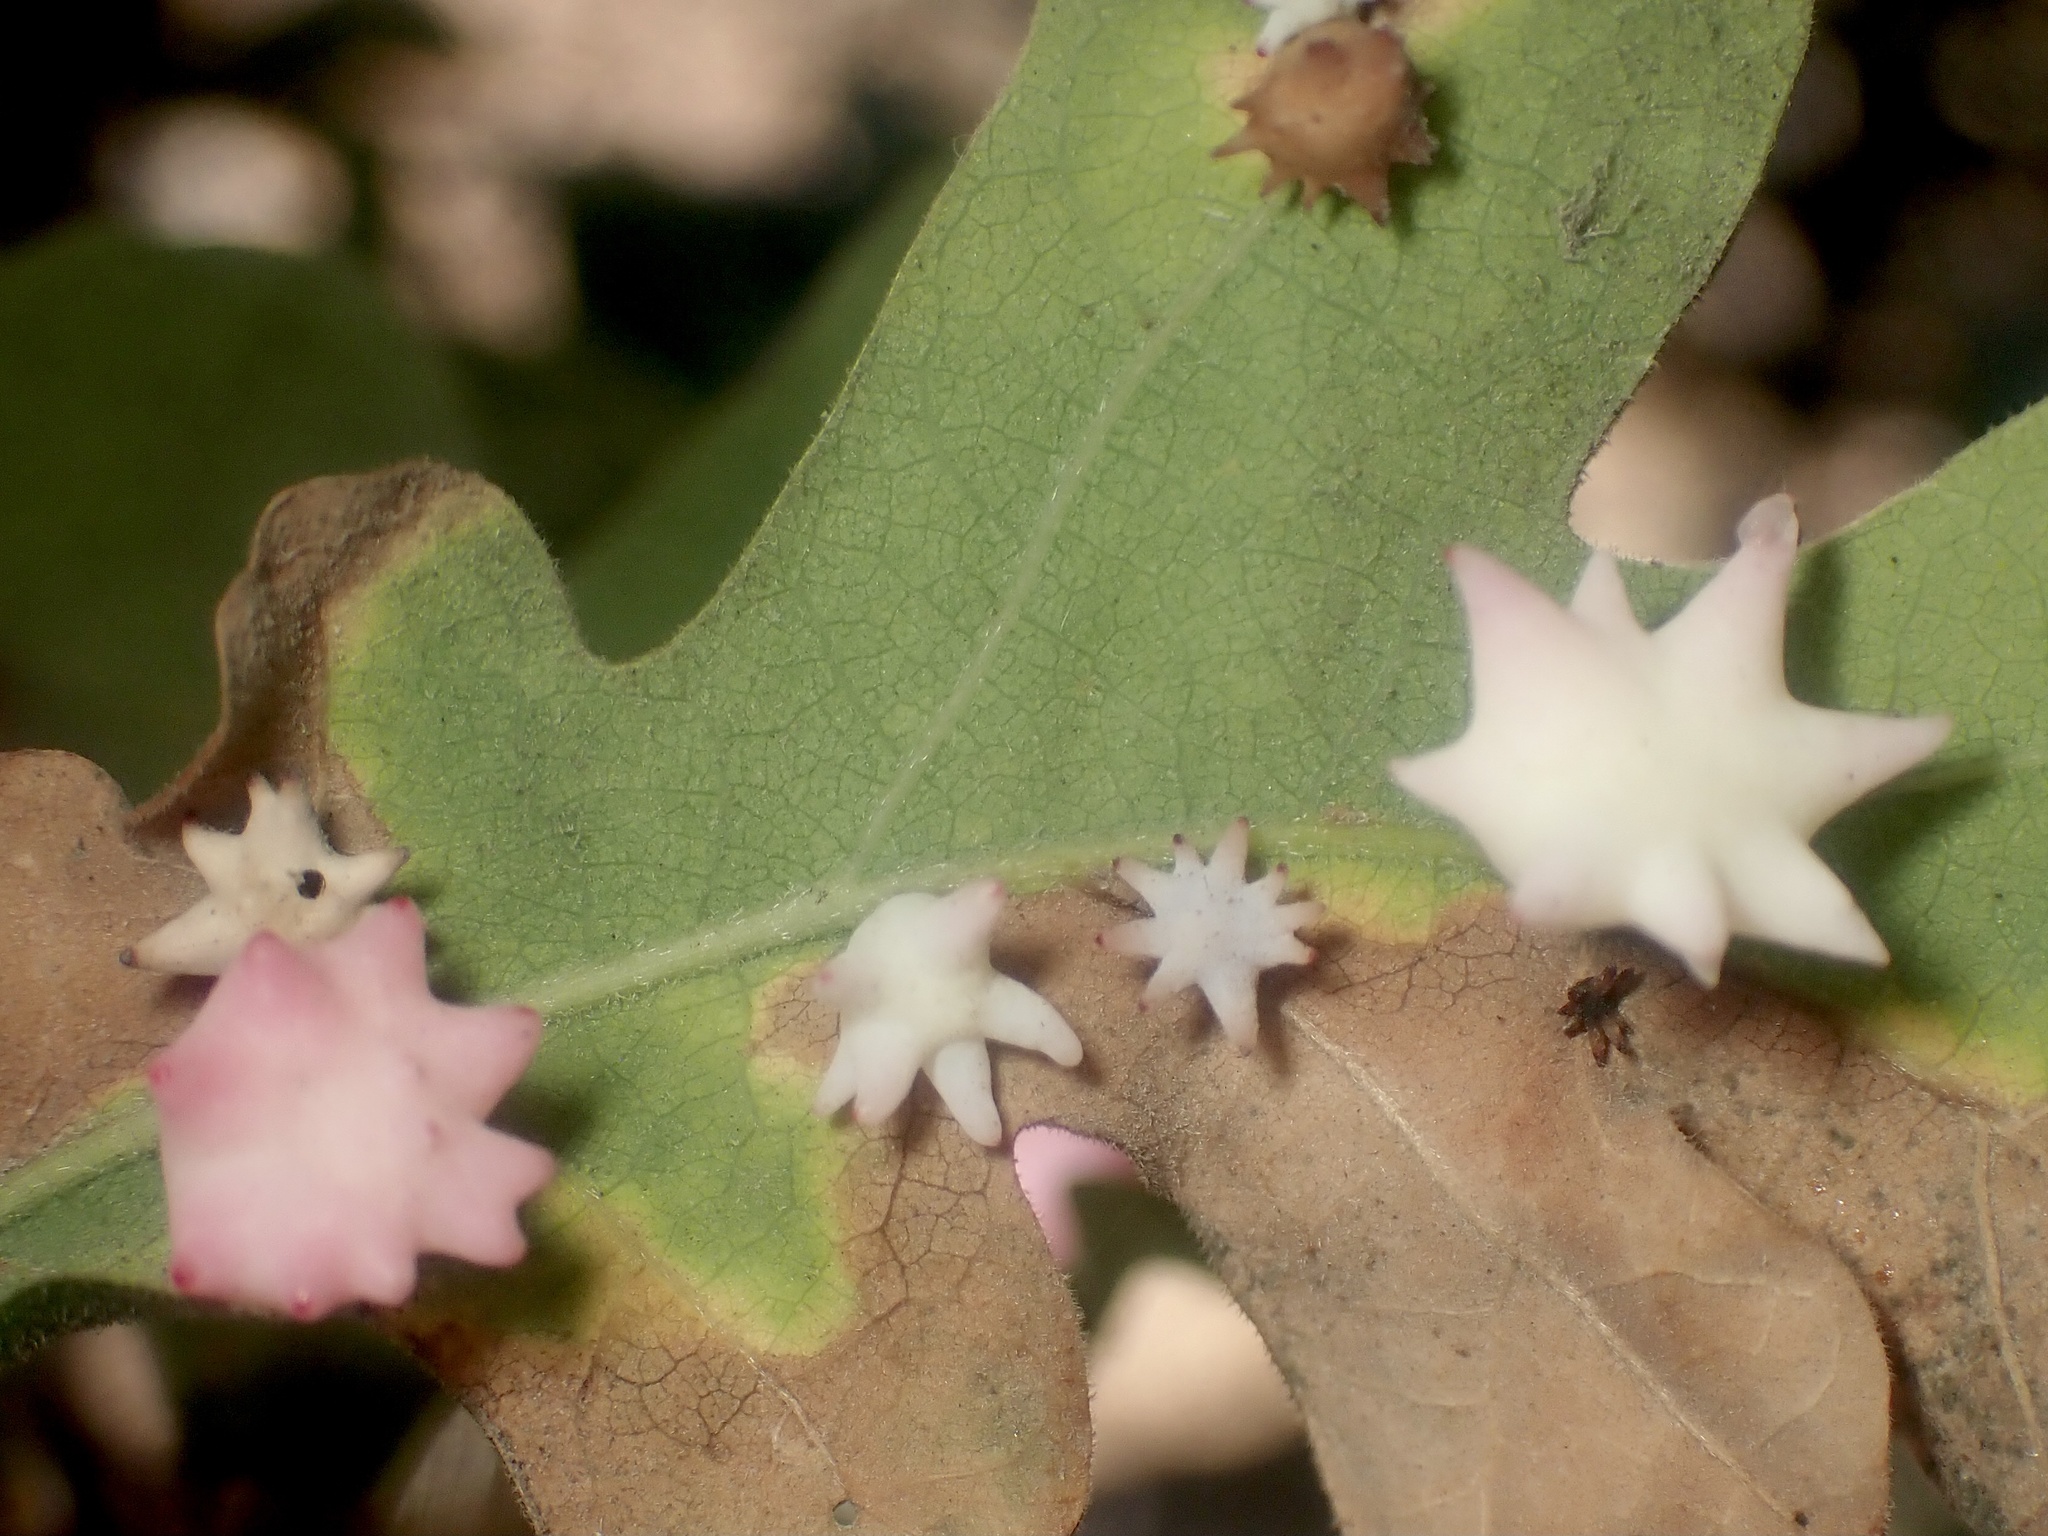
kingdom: Animalia
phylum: Arthropoda
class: Insecta
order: Hymenoptera
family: Cynipidae
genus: Cynips
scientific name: Cynips douglasi
